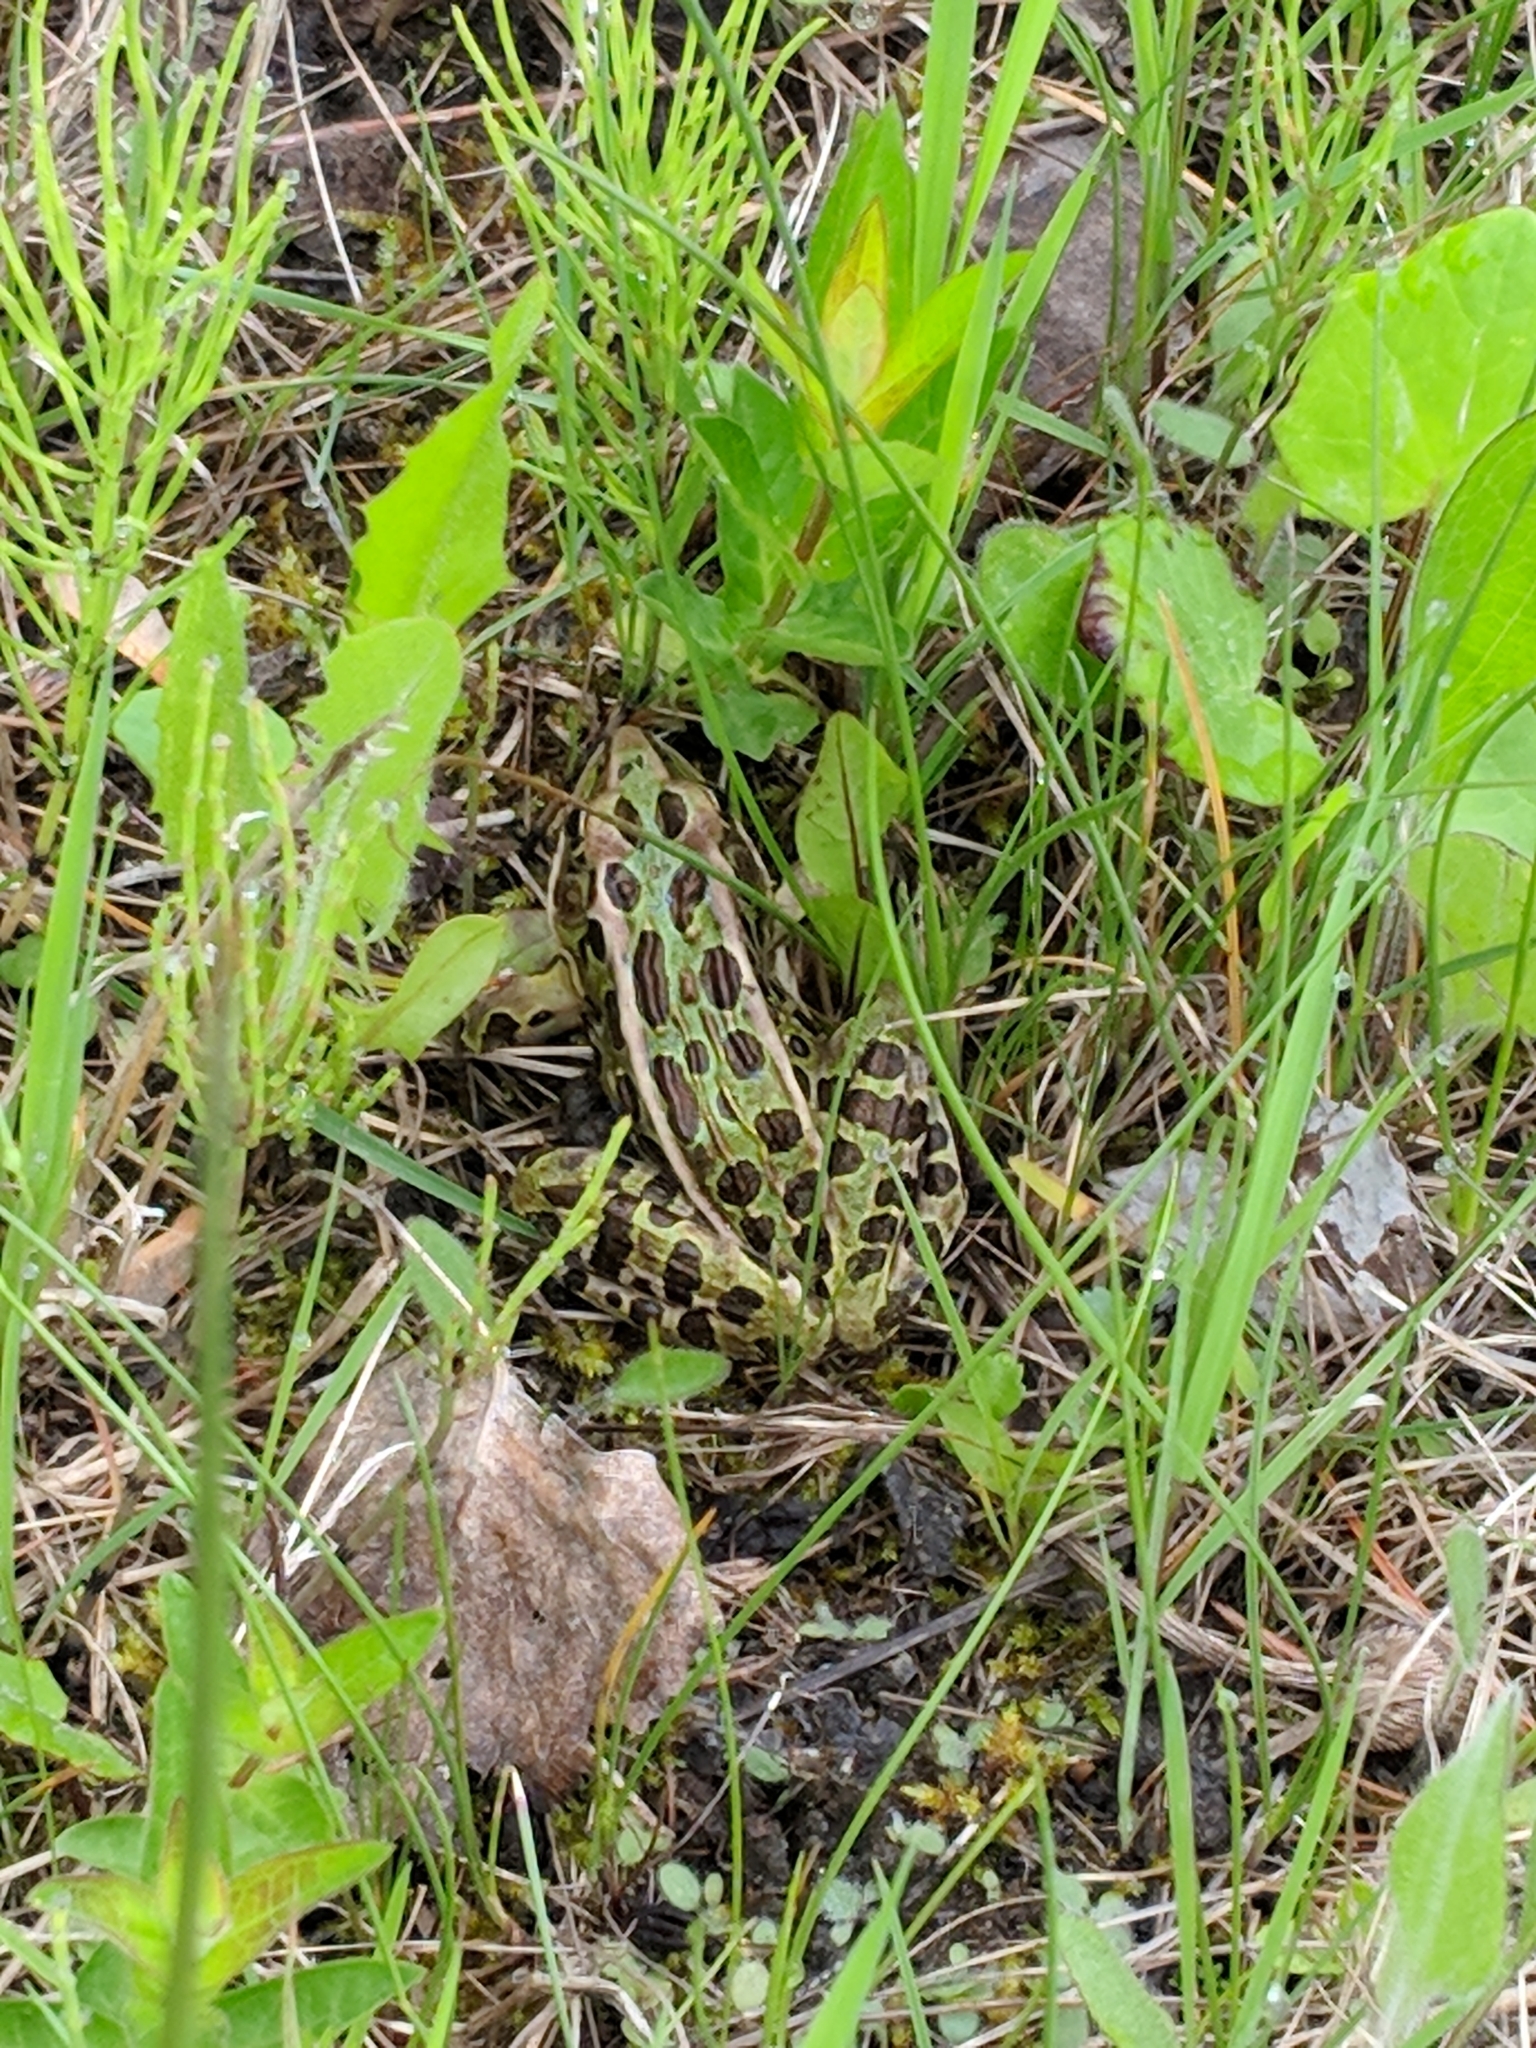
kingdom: Animalia
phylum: Chordata
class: Amphibia
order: Anura
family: Ranidae
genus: Lithobates
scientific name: Lithobates pipiens
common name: Northern leopard frog
